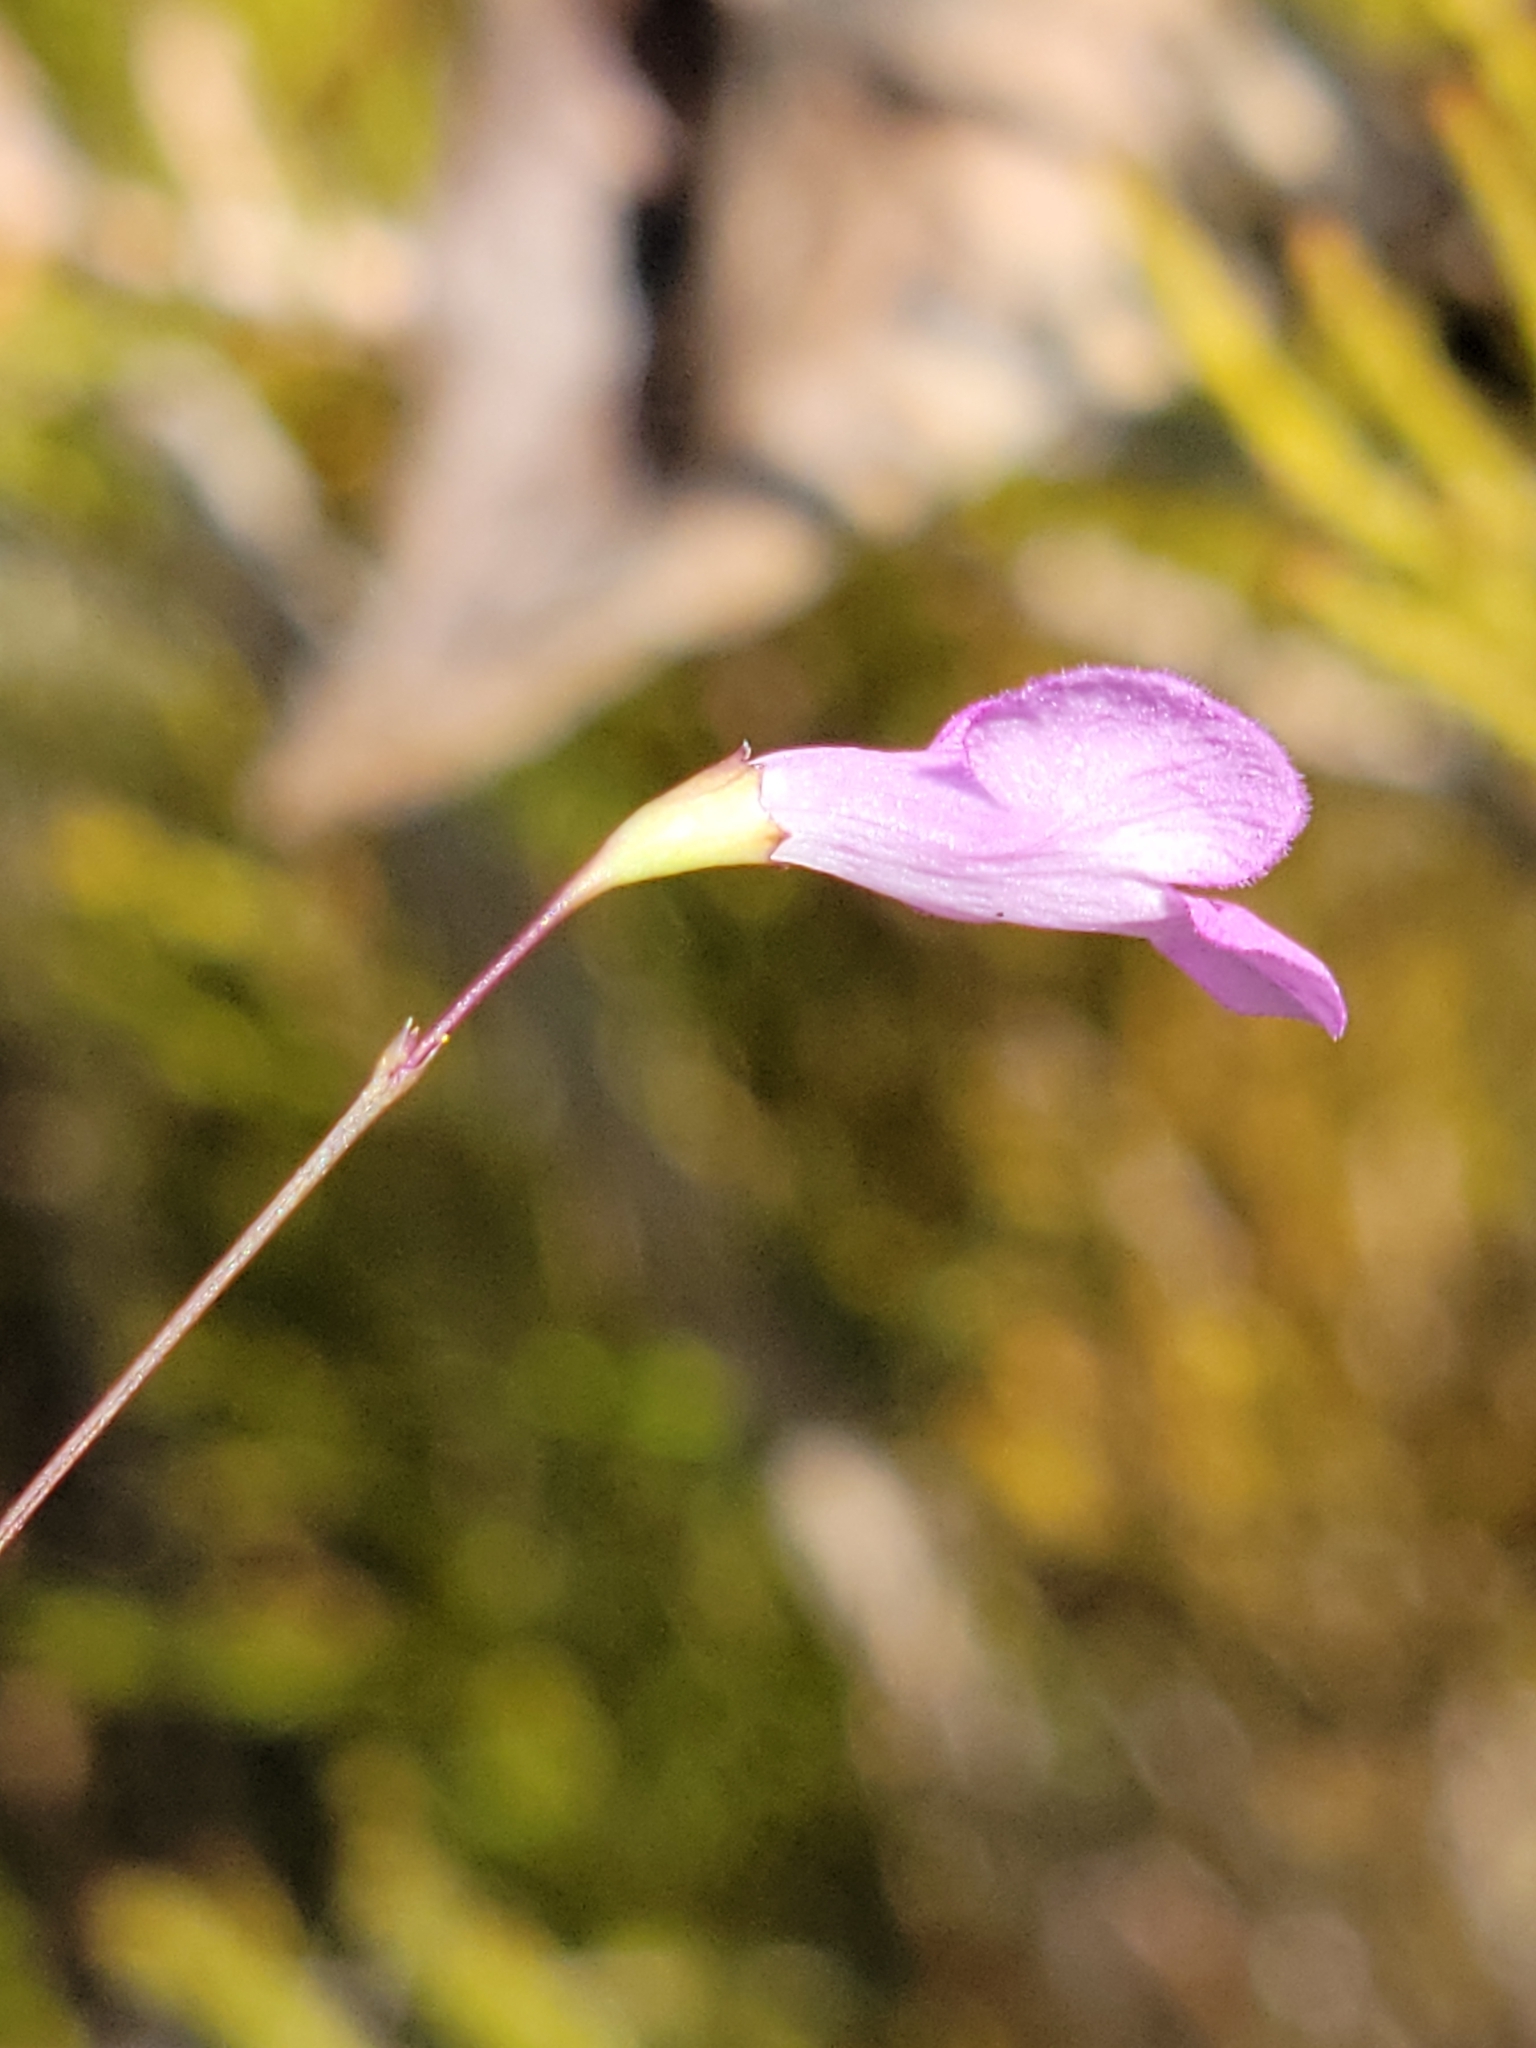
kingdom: Plantae
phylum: Tracheophyta
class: Magnoliopsida
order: Lamiales
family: Orobanchaceae
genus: Agalinis
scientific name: Agalinis filicaulis
